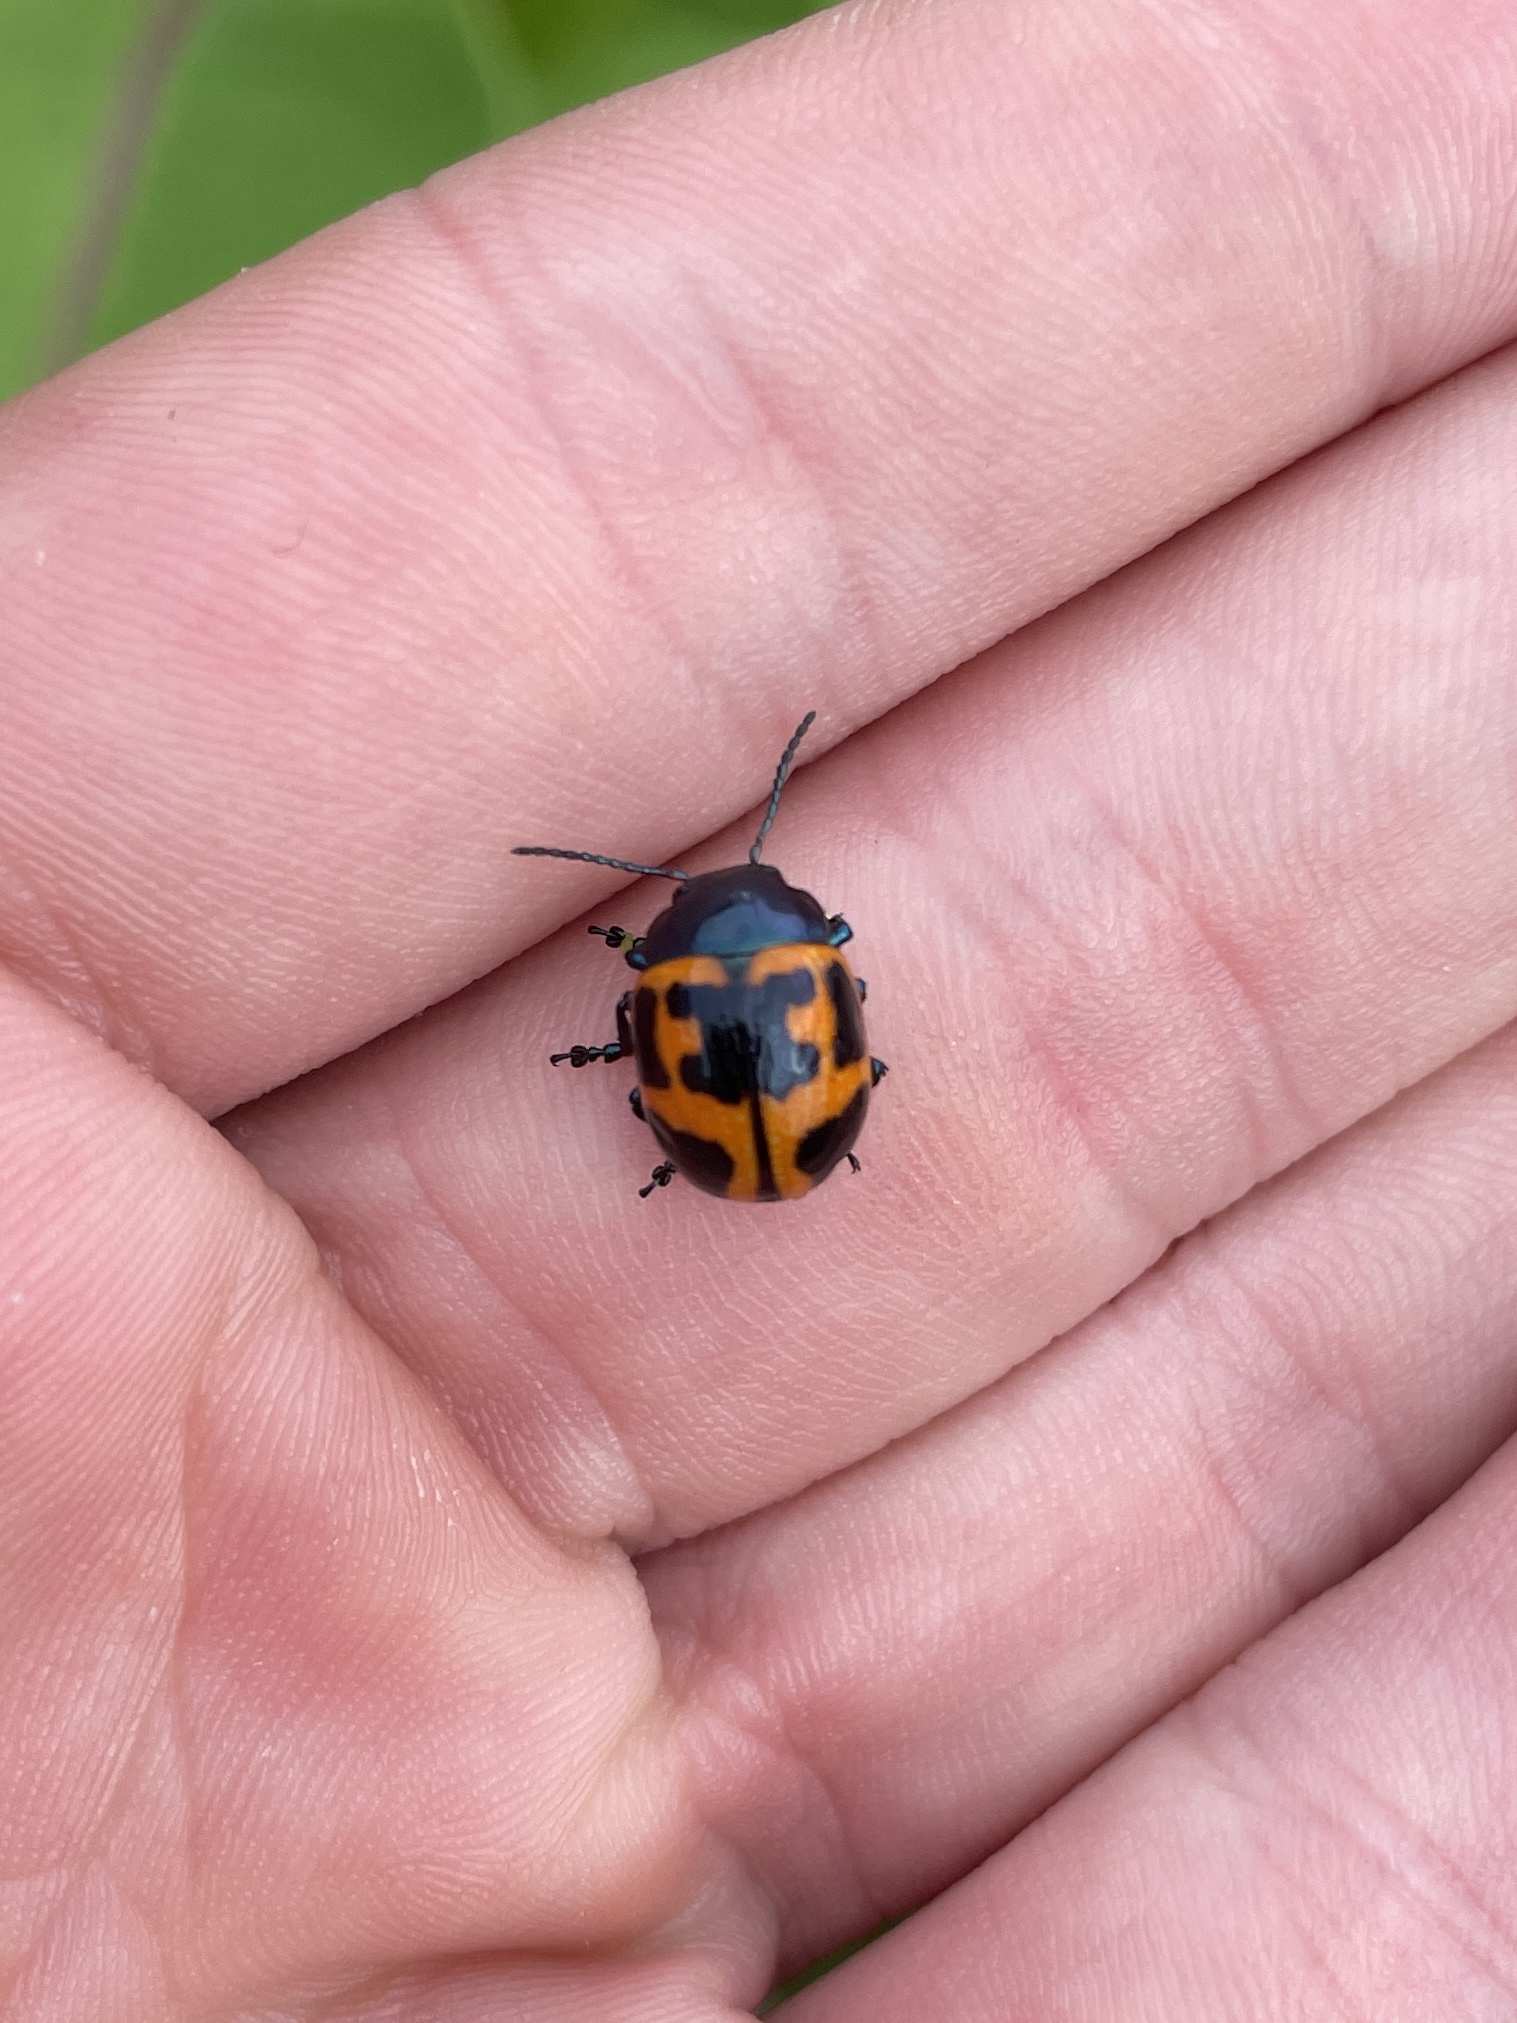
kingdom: Animalia
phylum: Arthropoda
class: Insecta
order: Coleoptera
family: Chrysomelidae
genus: Labidomera
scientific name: Labidomera clivicollis
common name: Swamp milkweed leaf beetle
